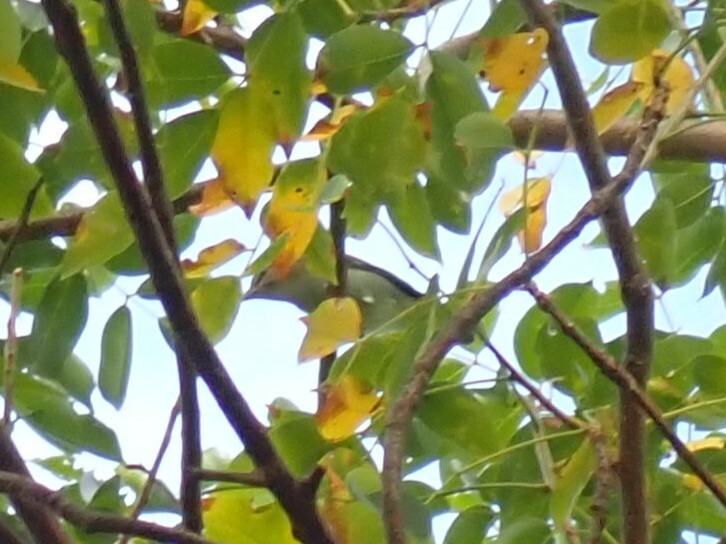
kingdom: Animalia
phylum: Chordata
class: Aves
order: Passeriformes
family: Vireonidae
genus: Vireo
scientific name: Vireo altiloquus
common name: Black-whiskered vireo
